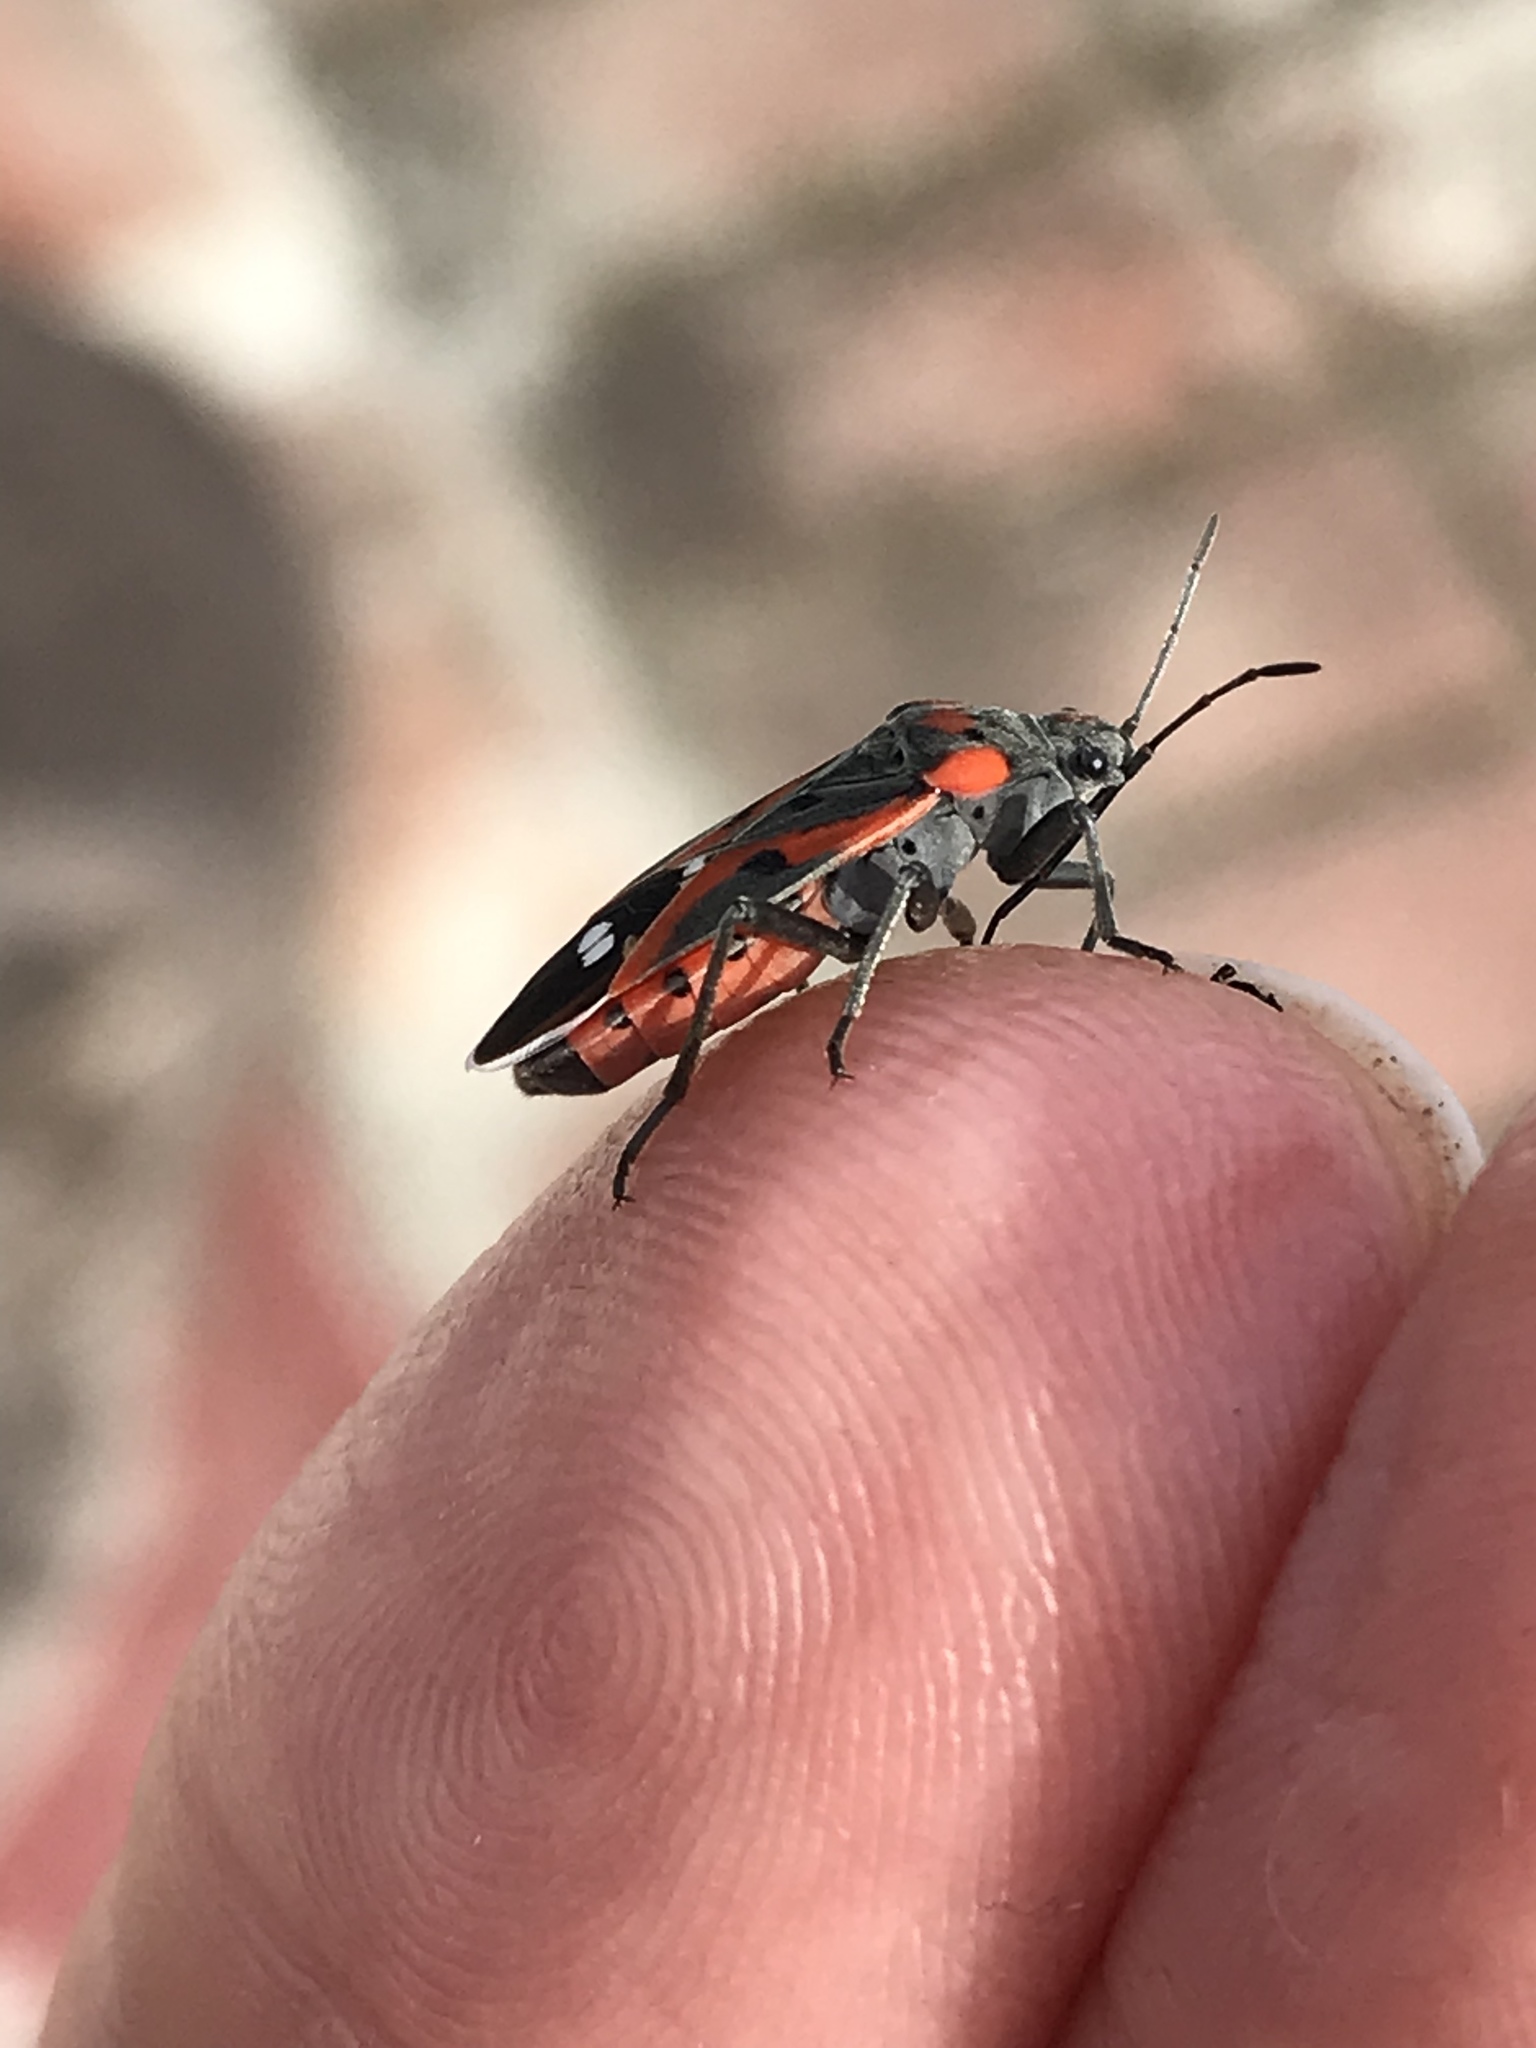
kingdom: Animalia
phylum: Arthropoda
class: Insecta
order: Hemiptera
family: Lygaeidae
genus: Lygaeus
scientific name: Lygaeus kalmii
